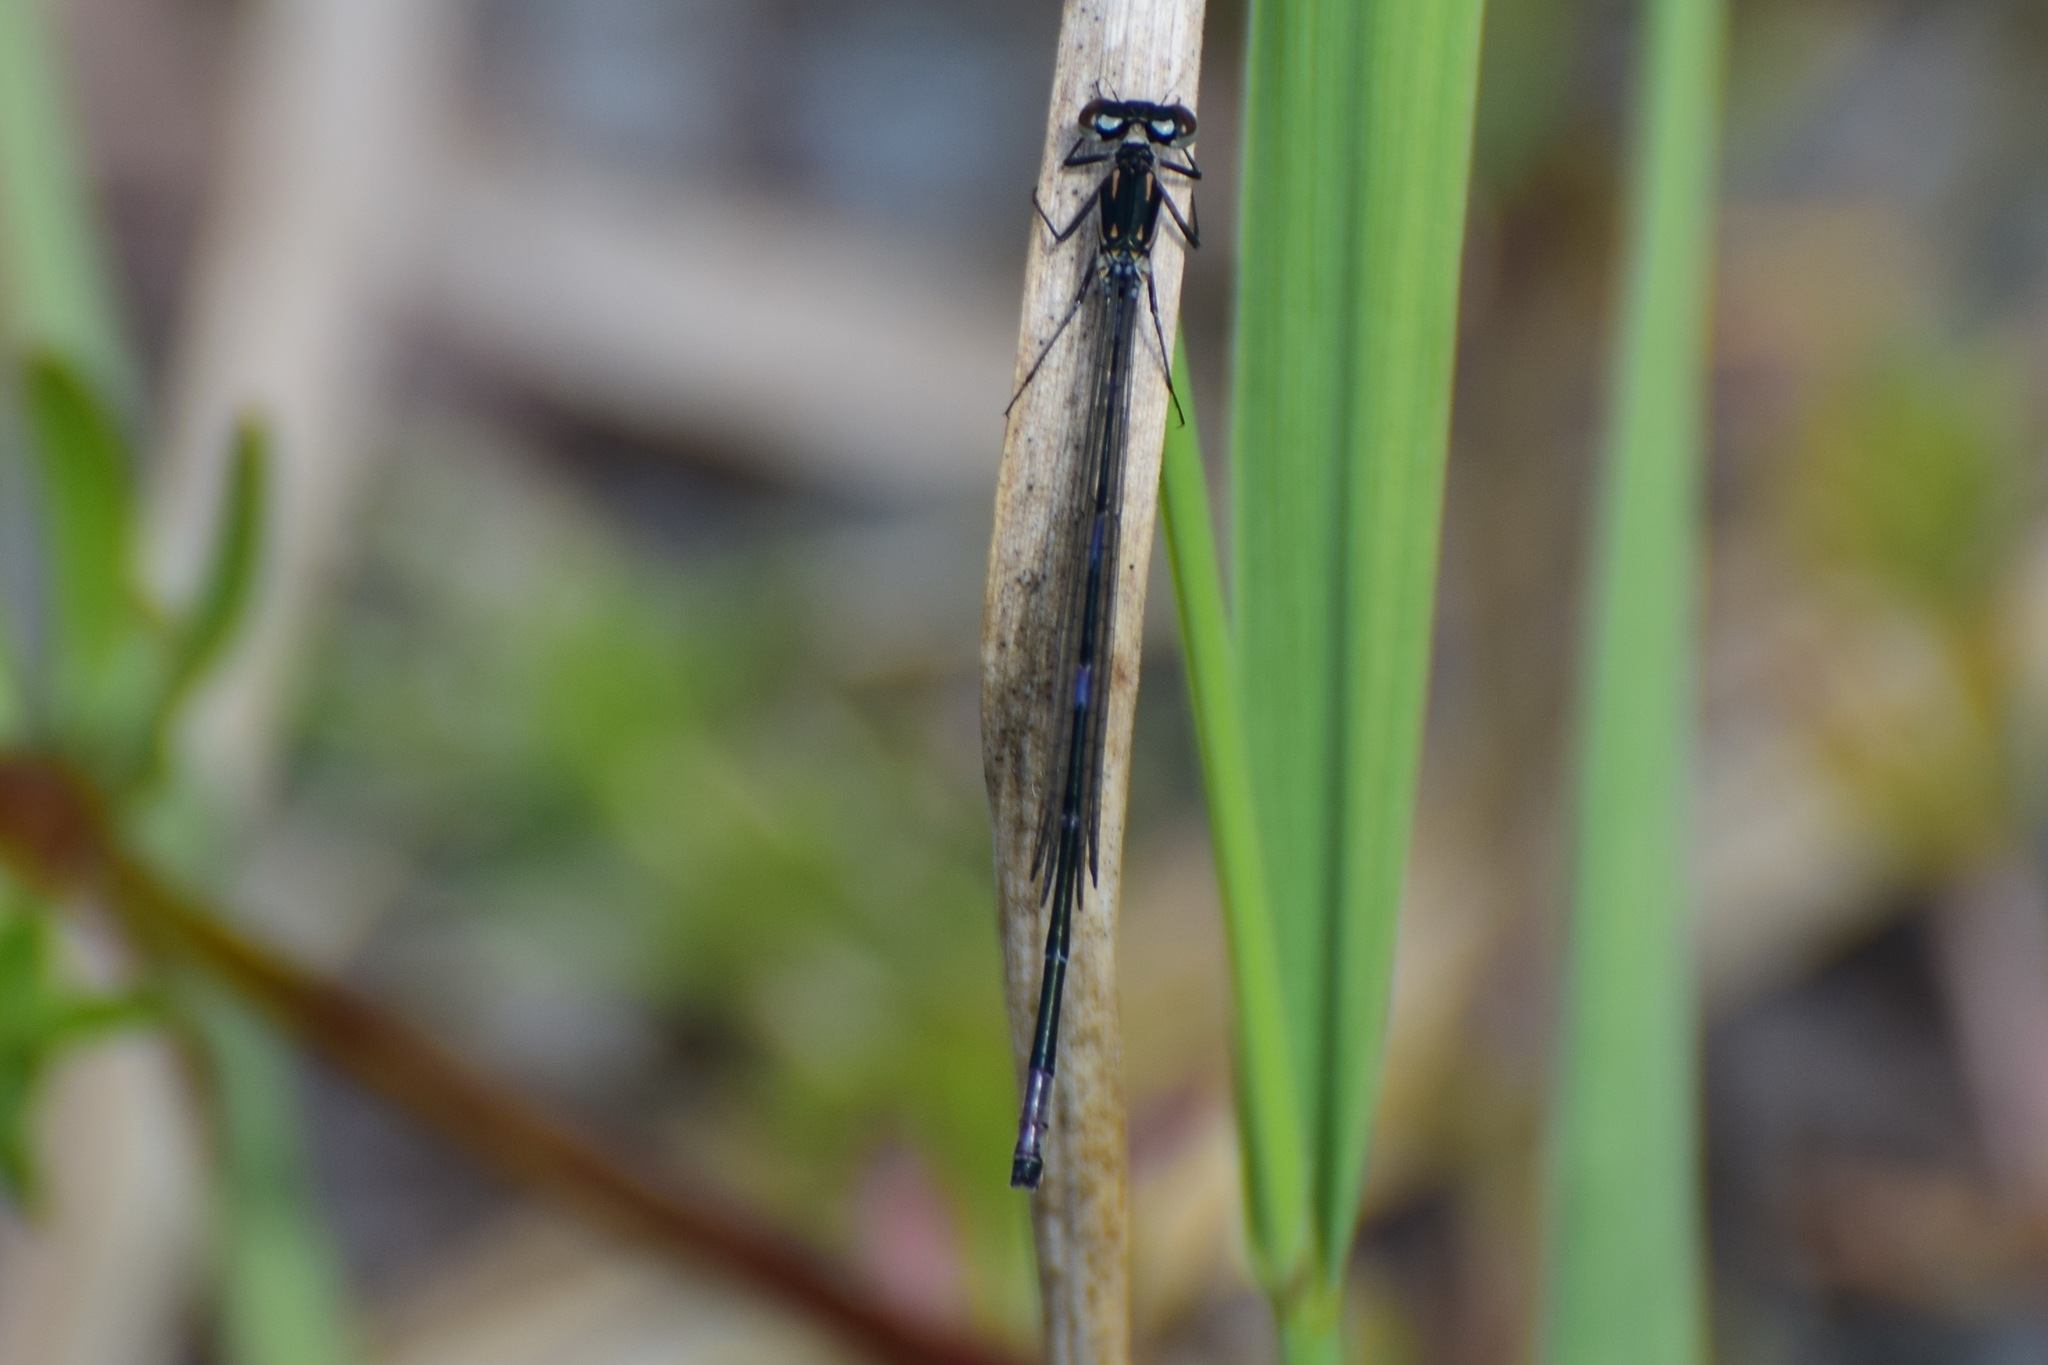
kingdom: Animalia
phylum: Arthropoda
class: Insecta
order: Odonata
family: Coenagrionidae
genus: Coenagrion
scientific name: Coenagrion pulchellum
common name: Variable bluet
